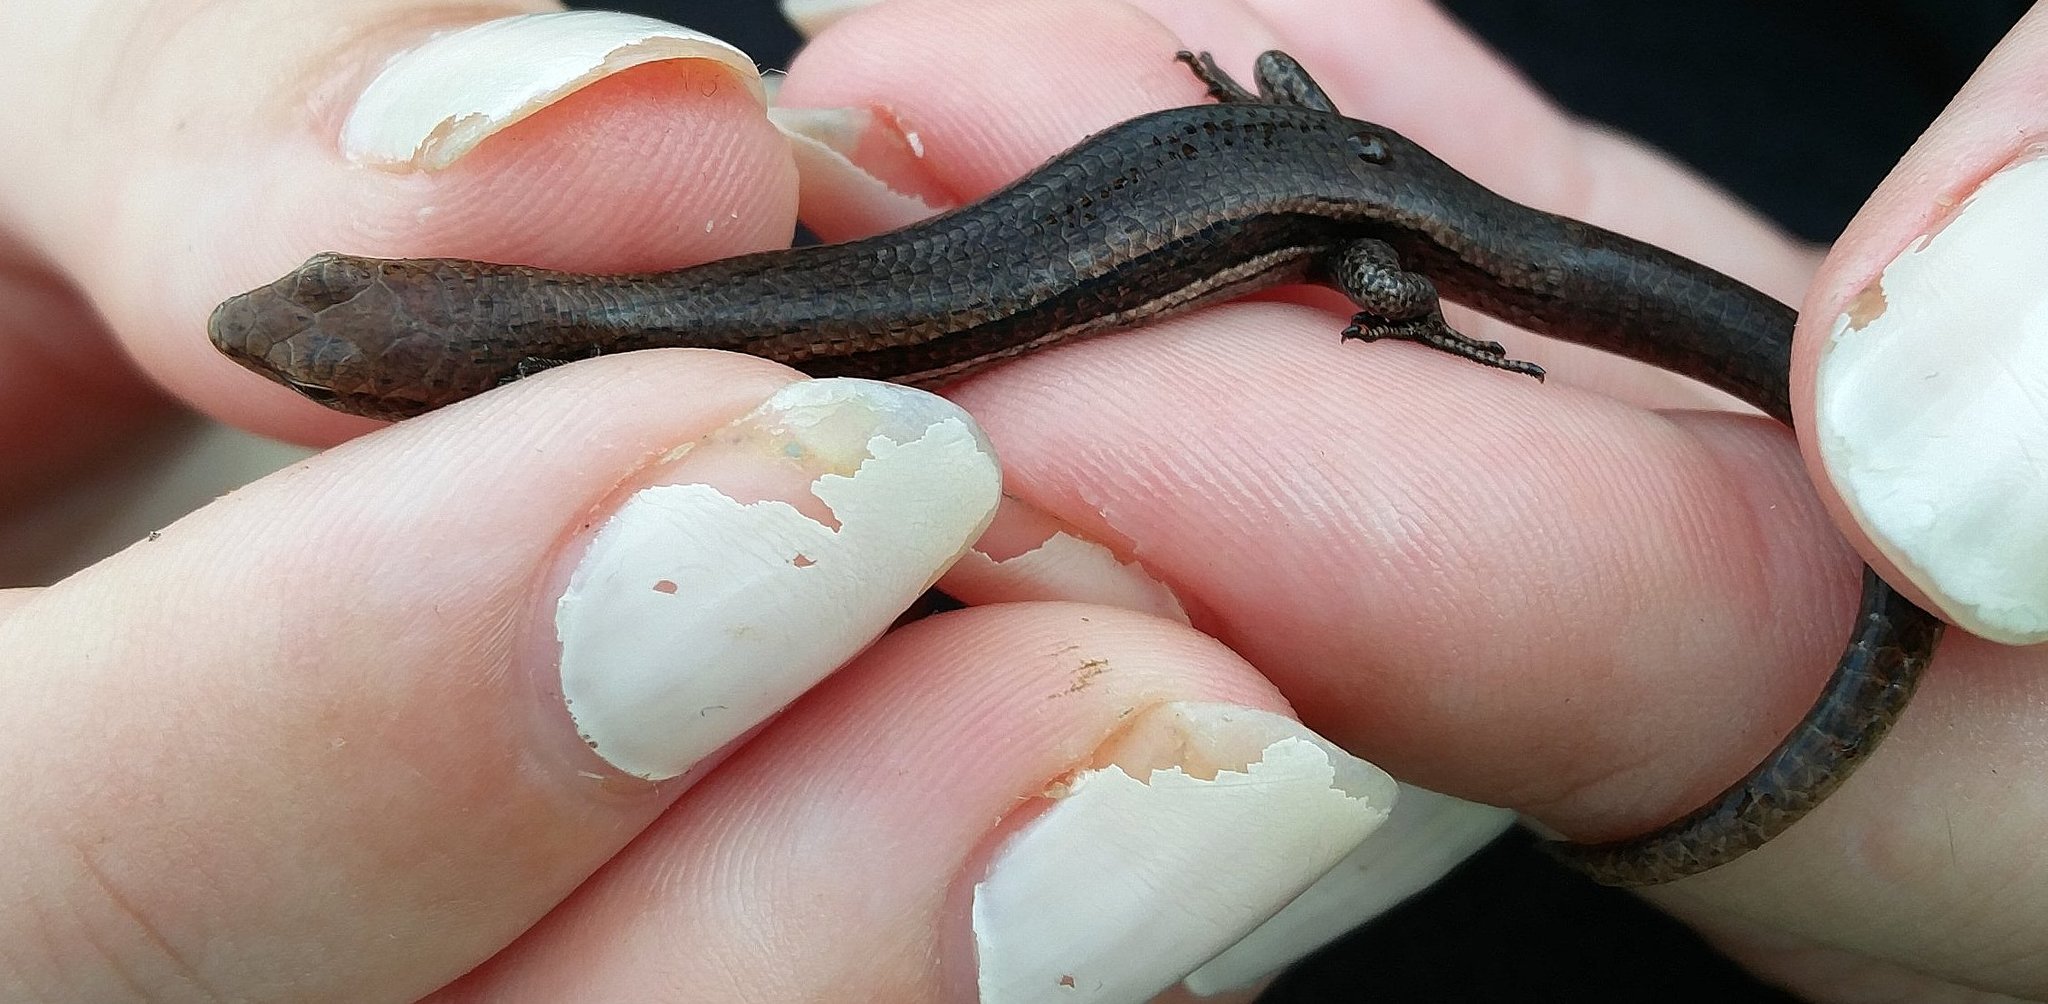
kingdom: Animalia
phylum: Chordata
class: Squamata
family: Scincidae
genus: Lampropholis
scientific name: Lampropholis delicata
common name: Plague skink
